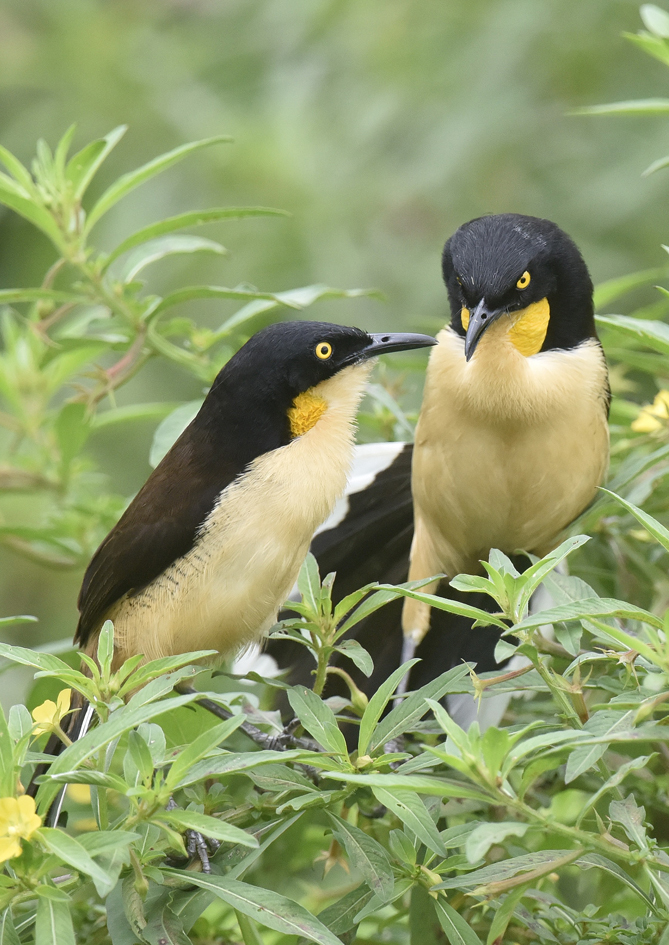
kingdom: Animalia
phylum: Chordata
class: Aves
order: Passeriformes
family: Donacobiidae
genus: Donacobius
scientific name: Donacobius atricapilla
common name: Black-capped donacobius
